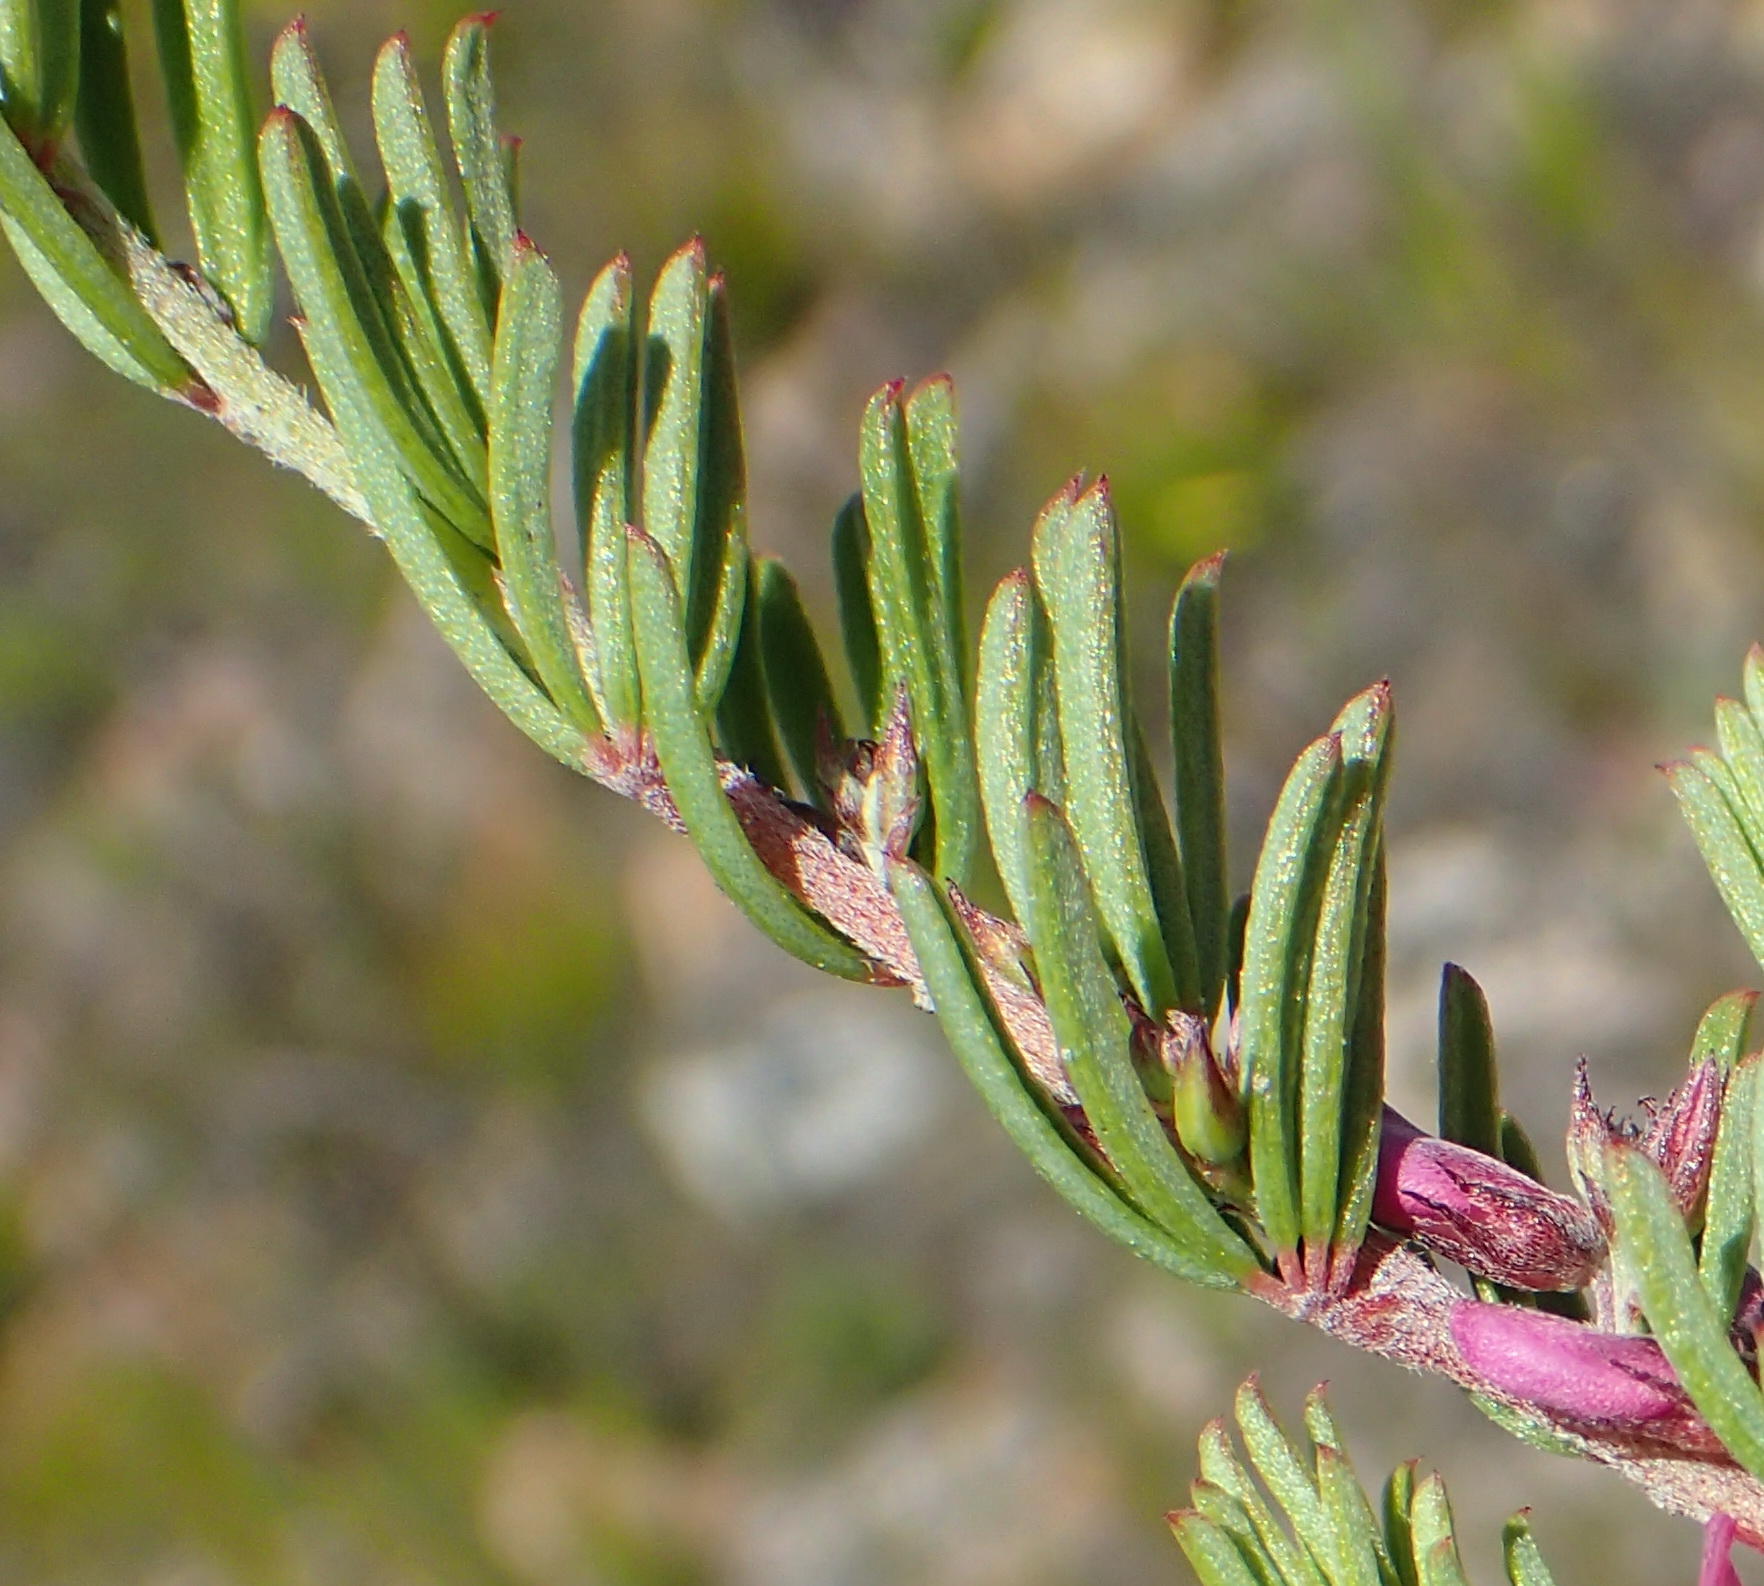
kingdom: Plantae
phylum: Tracheophyta
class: Magnoliopsida
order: Fabales
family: Fabaceae
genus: Indigofera
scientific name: Indigofera pappei
